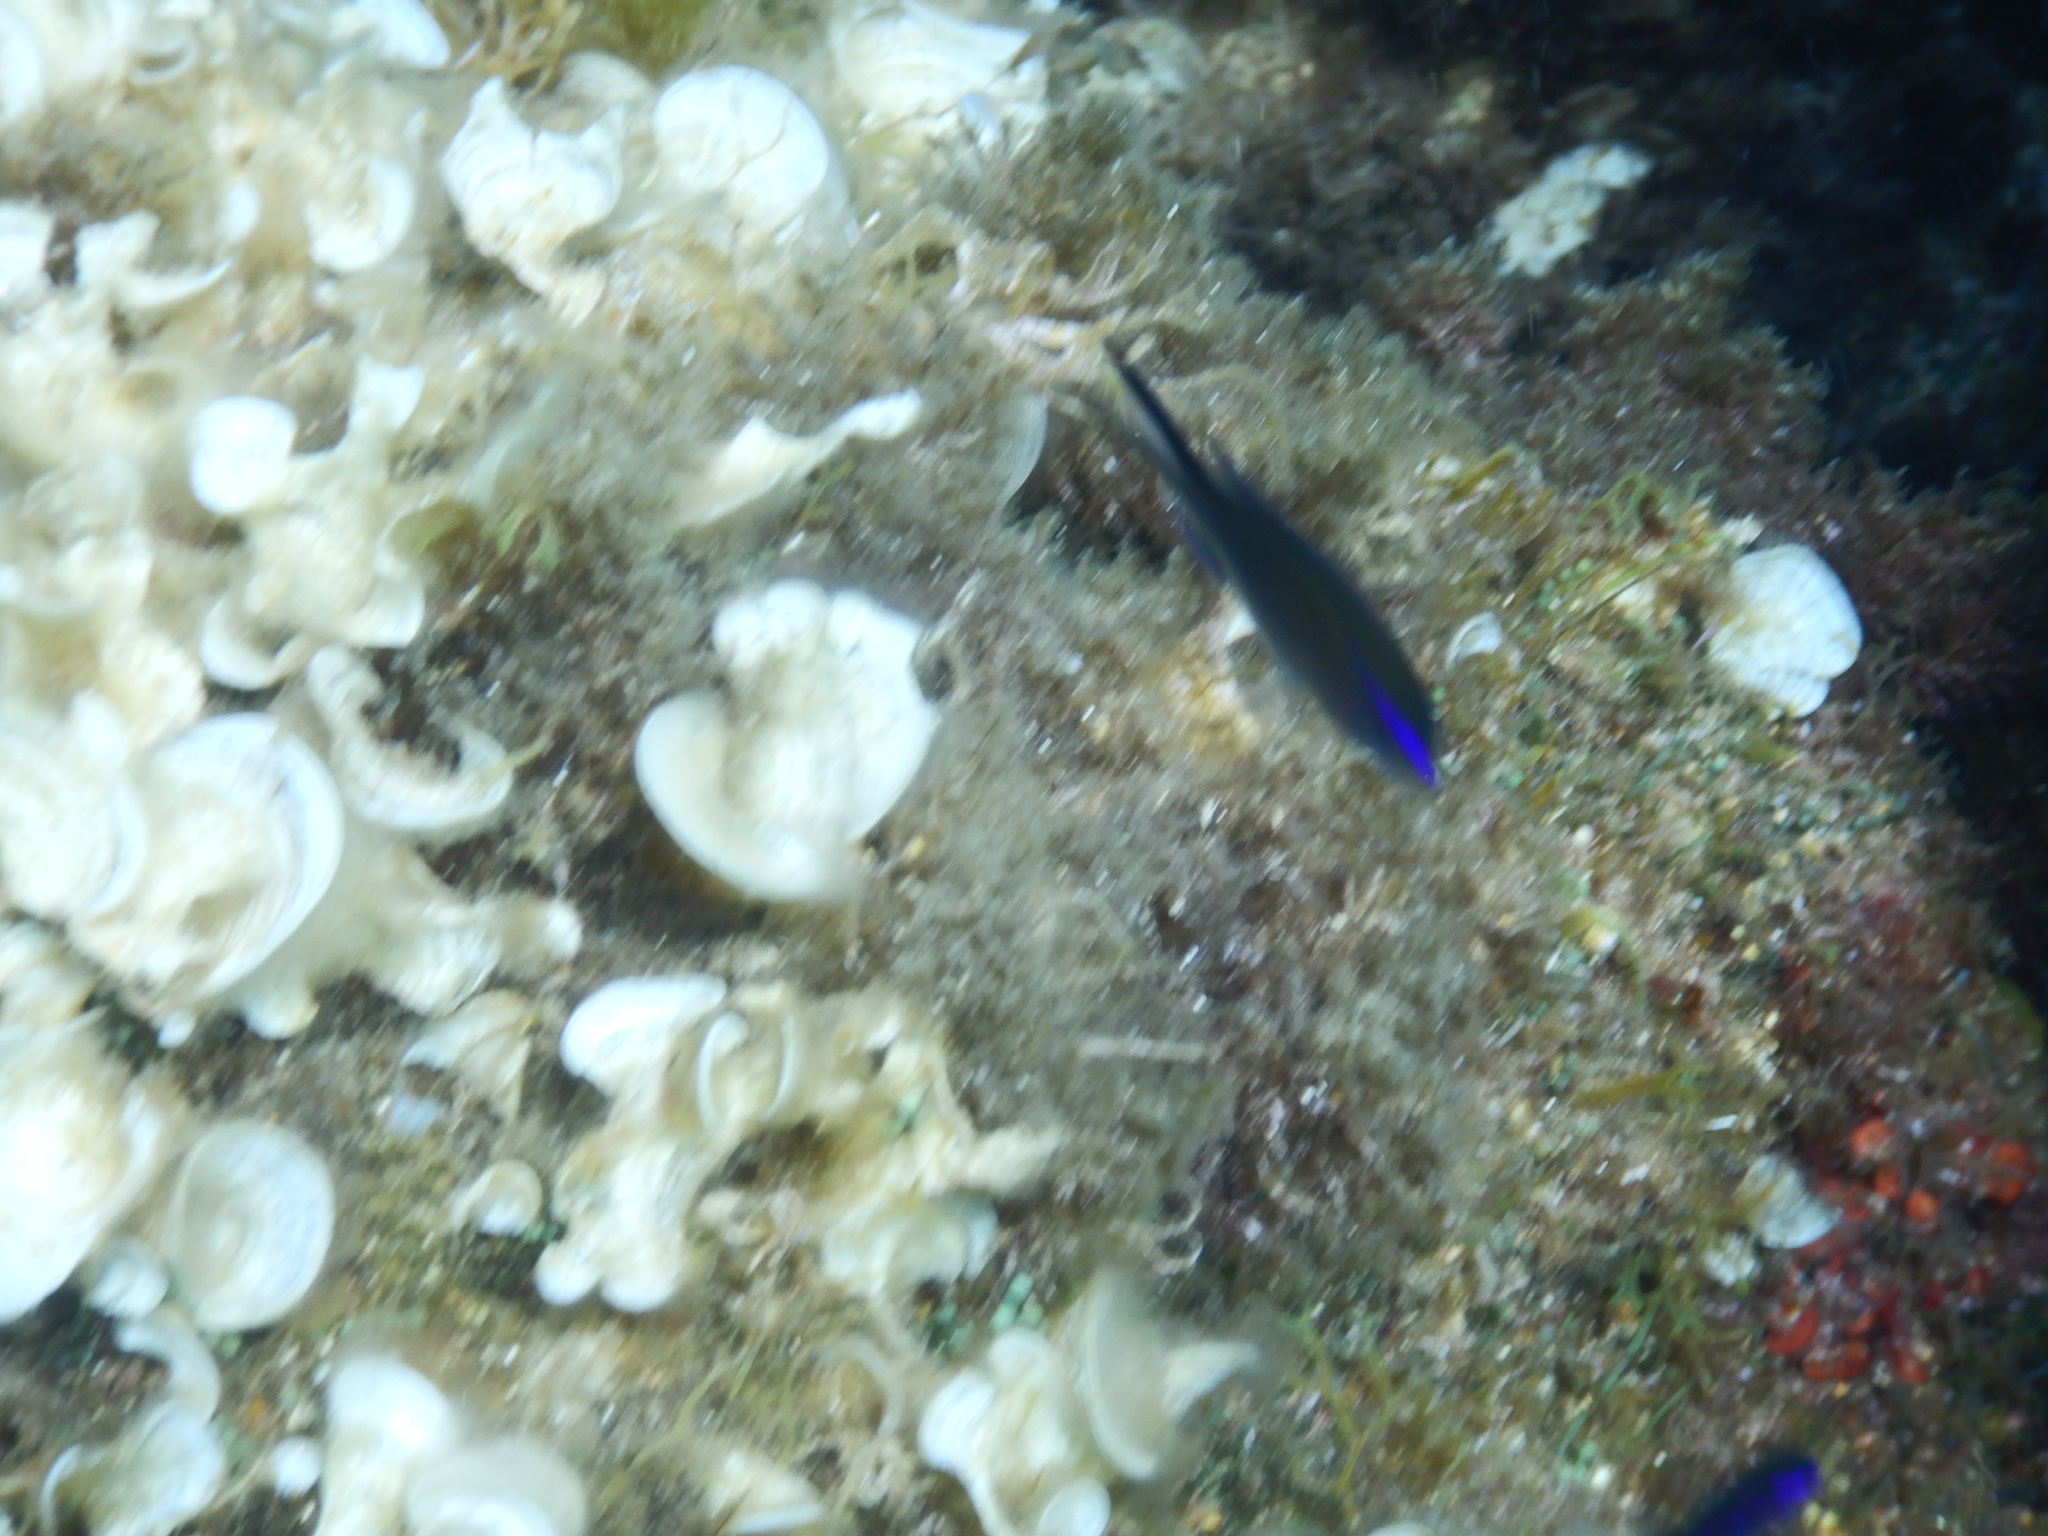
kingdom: Animalia
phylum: Chordata
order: Perciformes
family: Pomacentridae
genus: Chromis
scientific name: Chromis chromis
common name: Damselfish
